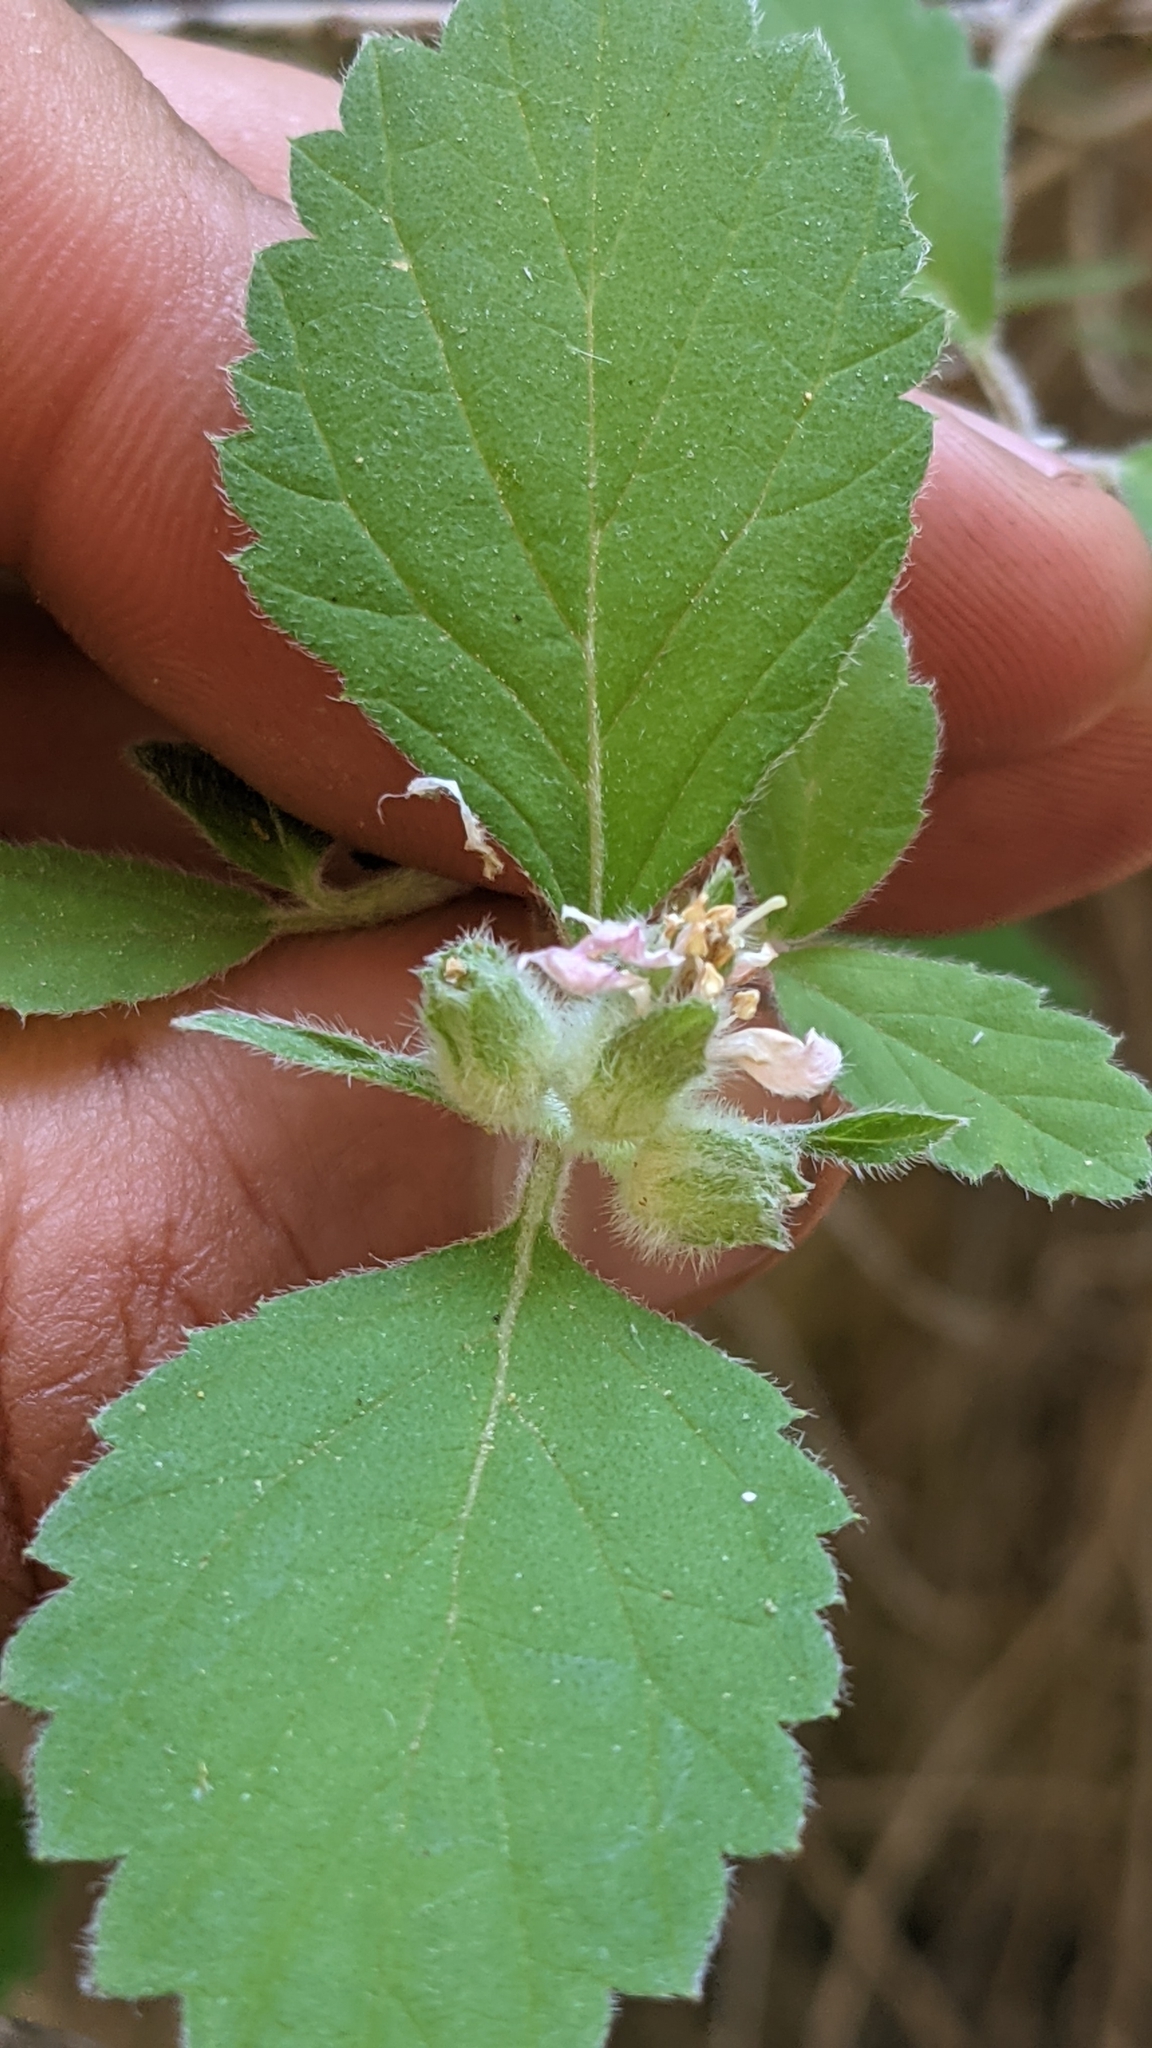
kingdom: Plantae
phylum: Tracheophyta
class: Magnoliopsida
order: Cornales
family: Hydrangeaceae
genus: Jamesia
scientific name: Jamesia americana
